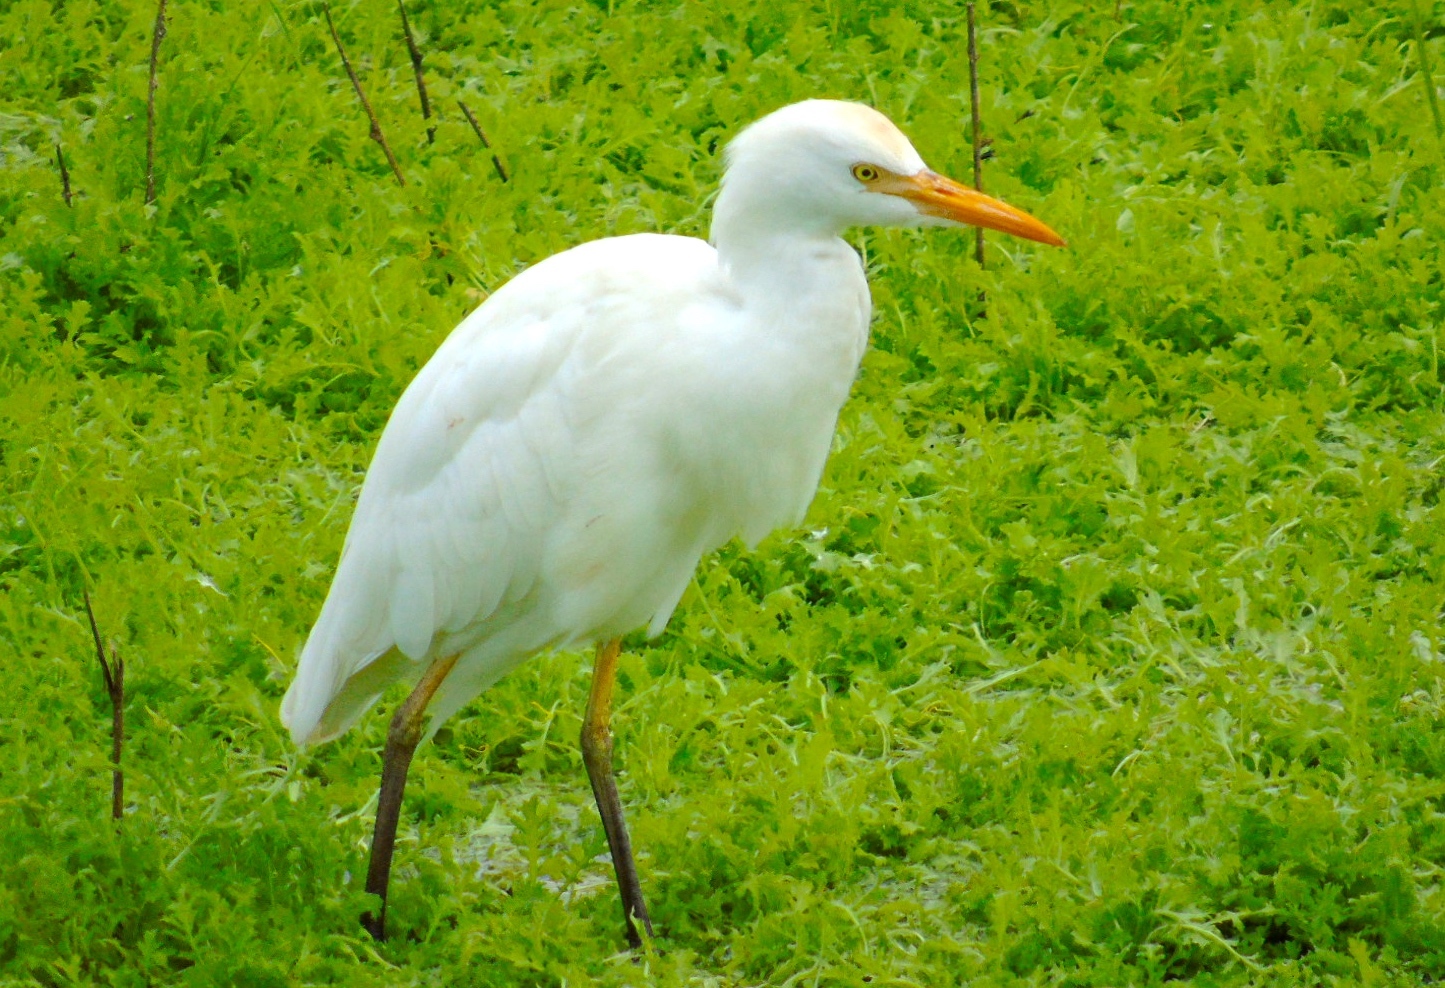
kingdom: Animalia
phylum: Chordata
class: Aves
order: Pelecaniformes
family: Ardeidae
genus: Bubulcus
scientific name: Bubulcus ibis
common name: Cattle egret
